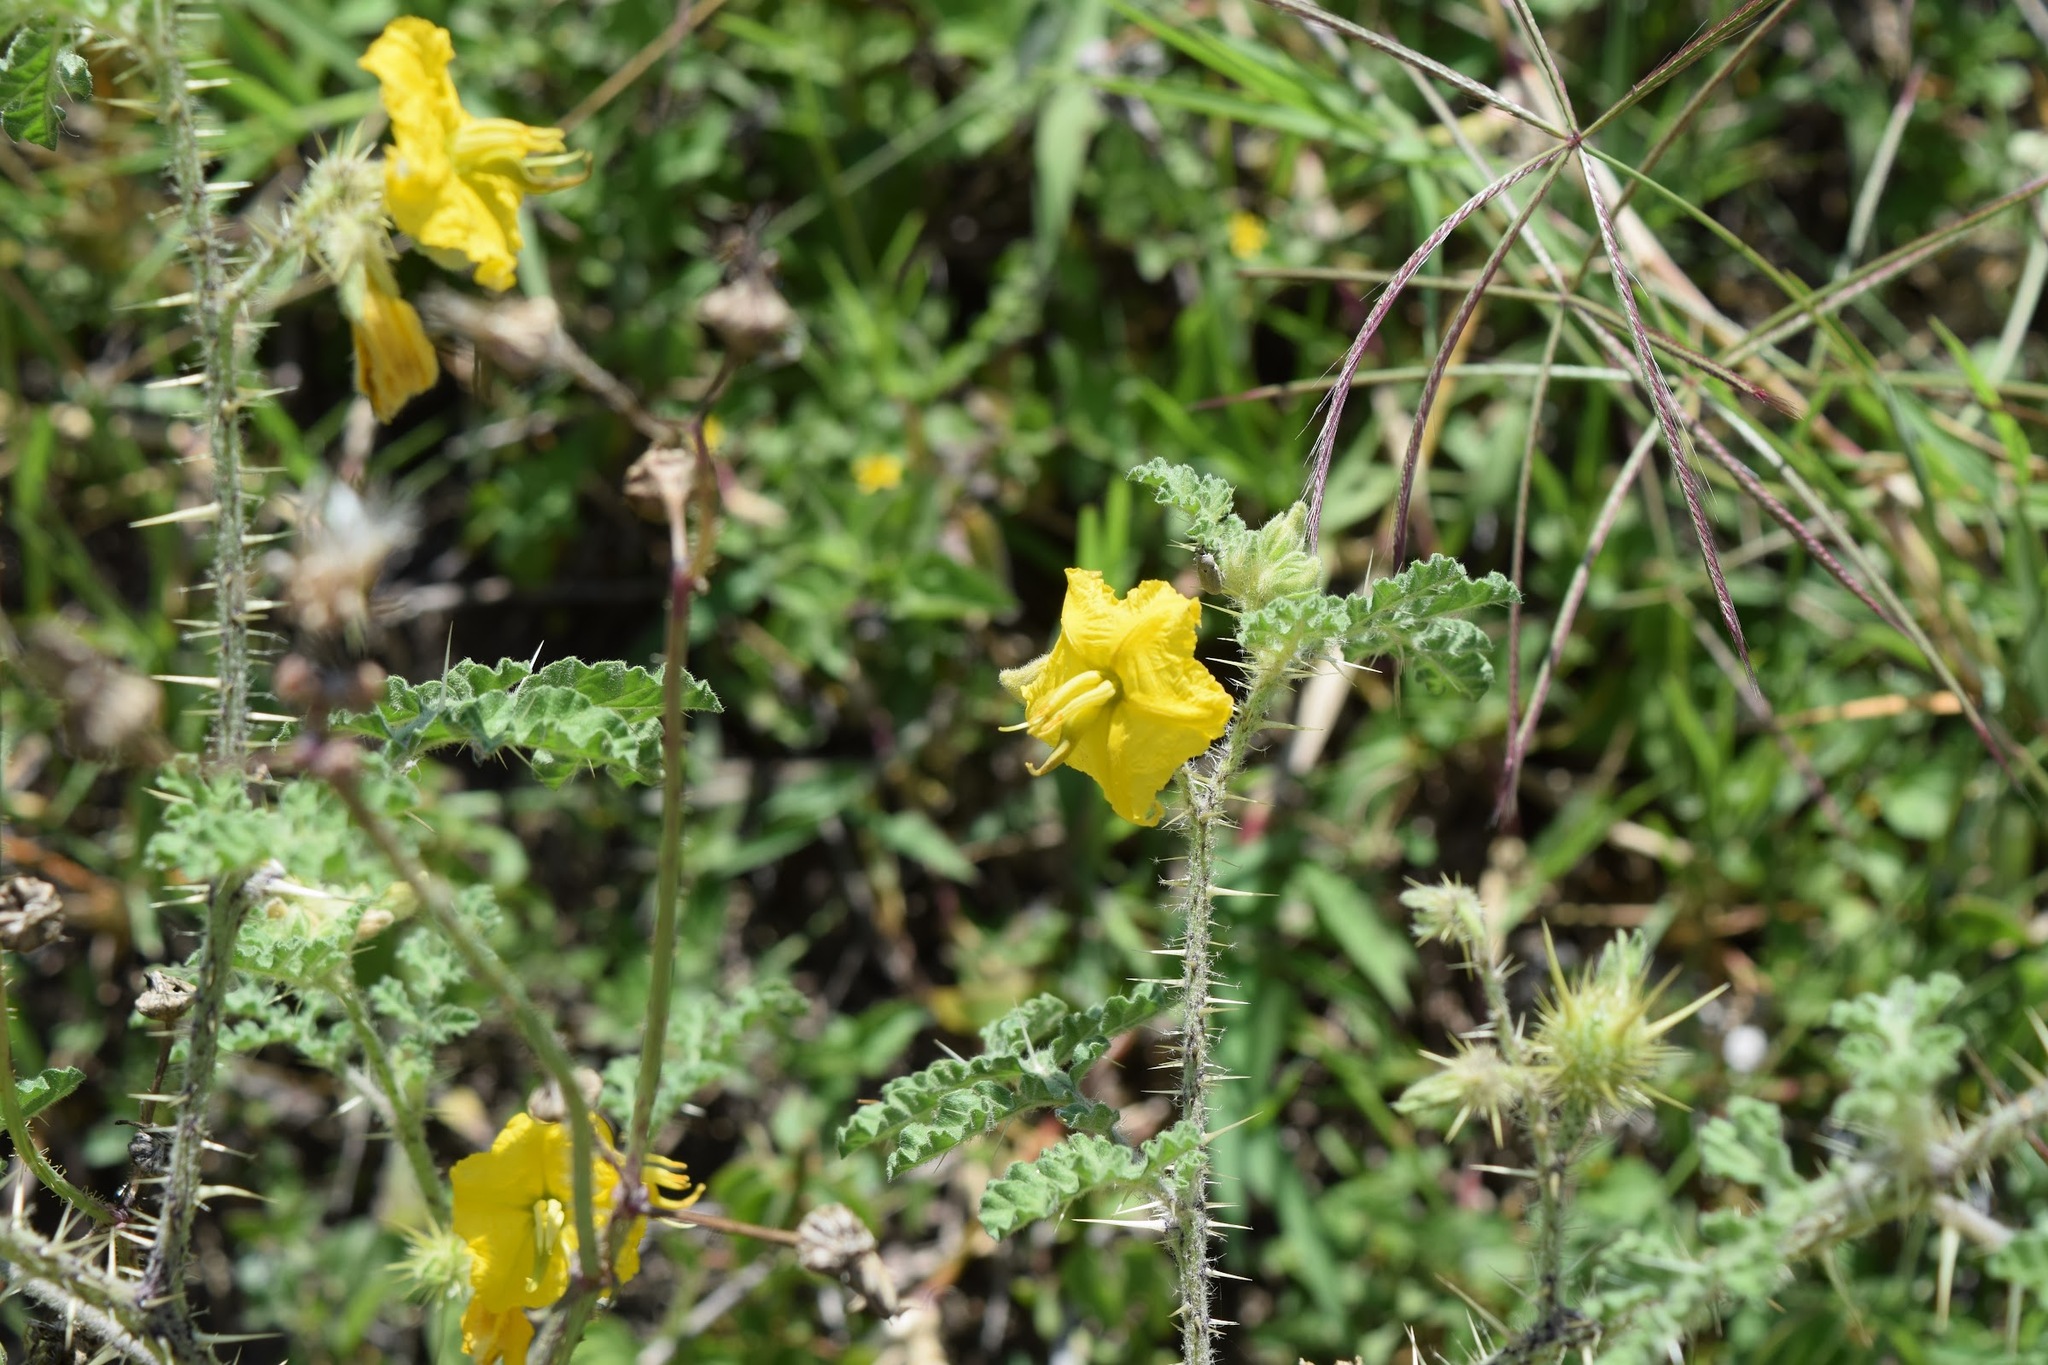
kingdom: Plantae
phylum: Tracheophyta
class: Magnoliopsida
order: Solanales
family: Solanaceae
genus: Solanum
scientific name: Solanum angustifolium
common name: Buffalobur nightshade
